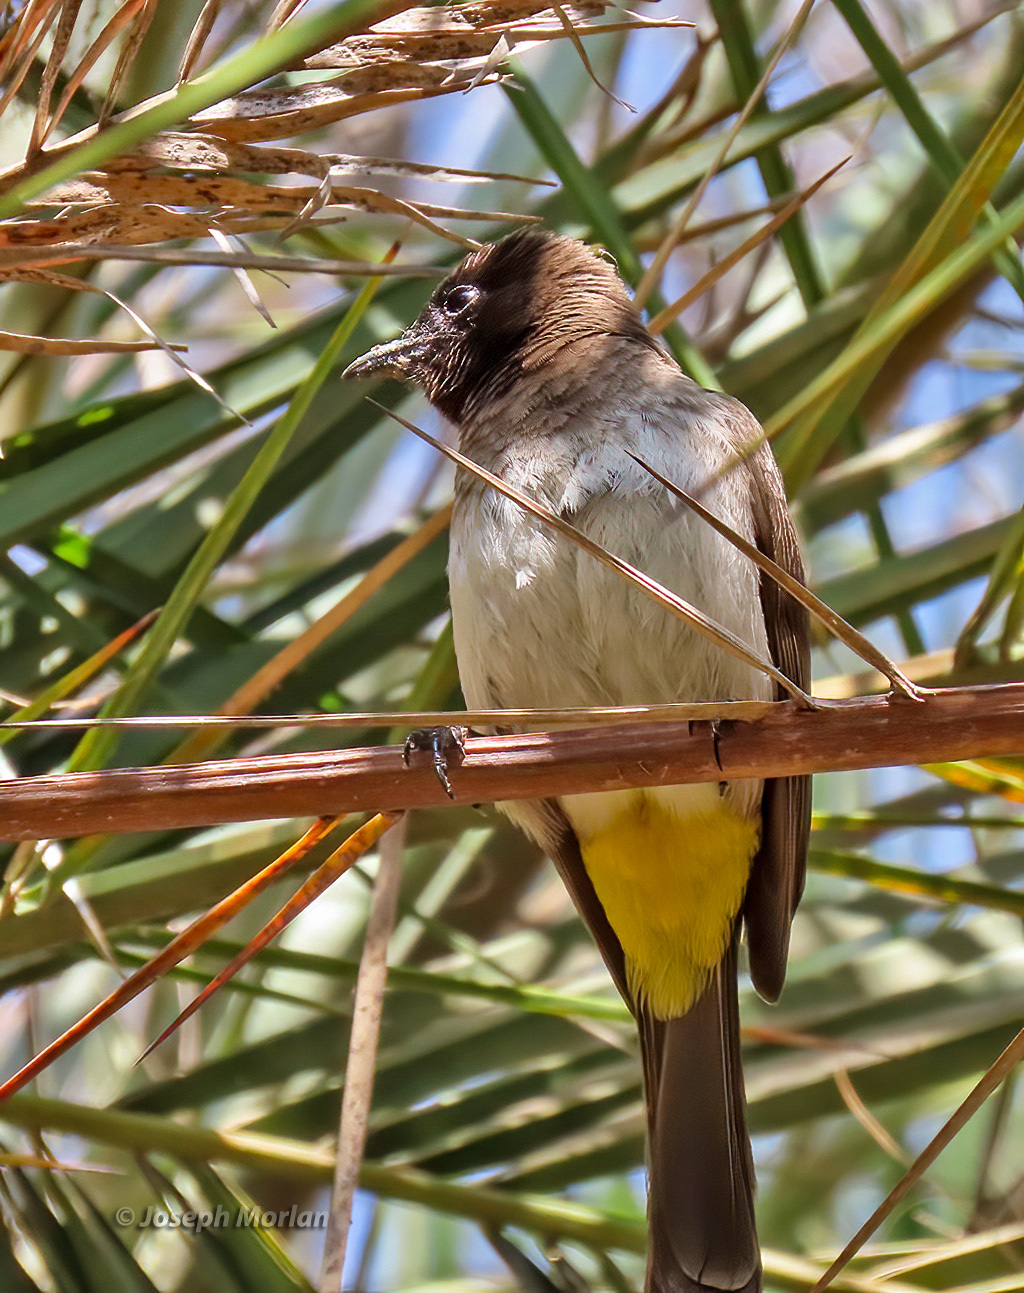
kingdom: Animalia
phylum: Chordata
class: Aves
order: Passeriformes
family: Pycnonotidae
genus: Pycnonotus
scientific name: Pycnonotus barbatus
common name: Common bulbul
